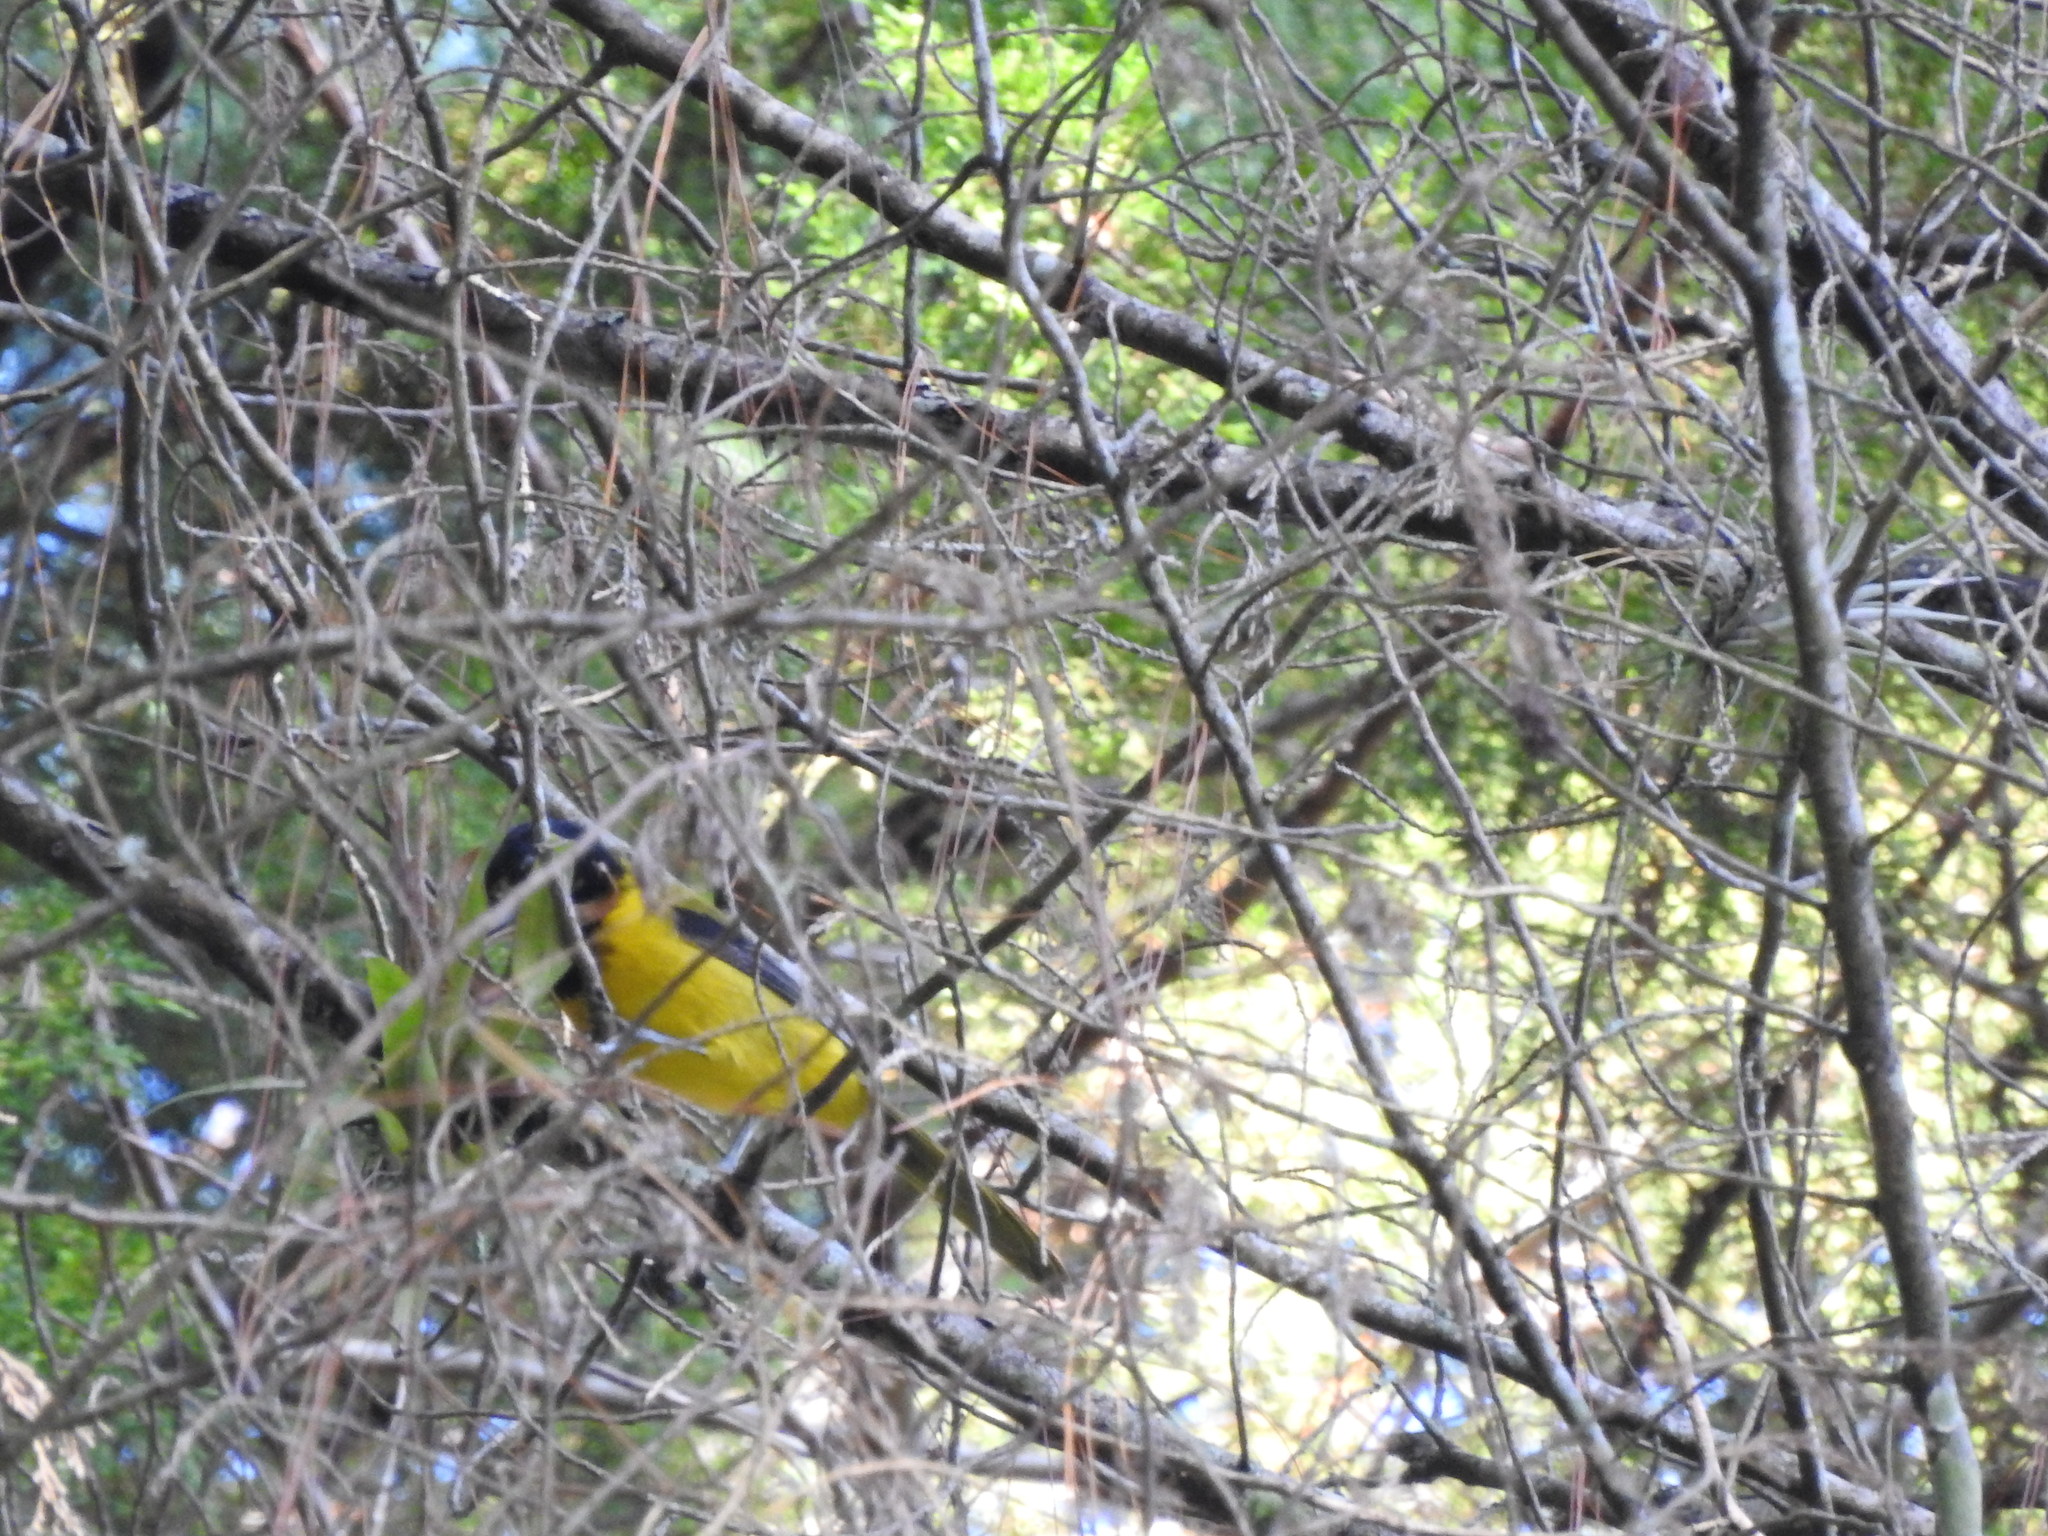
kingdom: Animalia
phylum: Chordata
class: Aves
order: Passeriformes
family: Icteridae
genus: Icterus
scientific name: Icterus graduacauda
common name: Audubon's oriole
